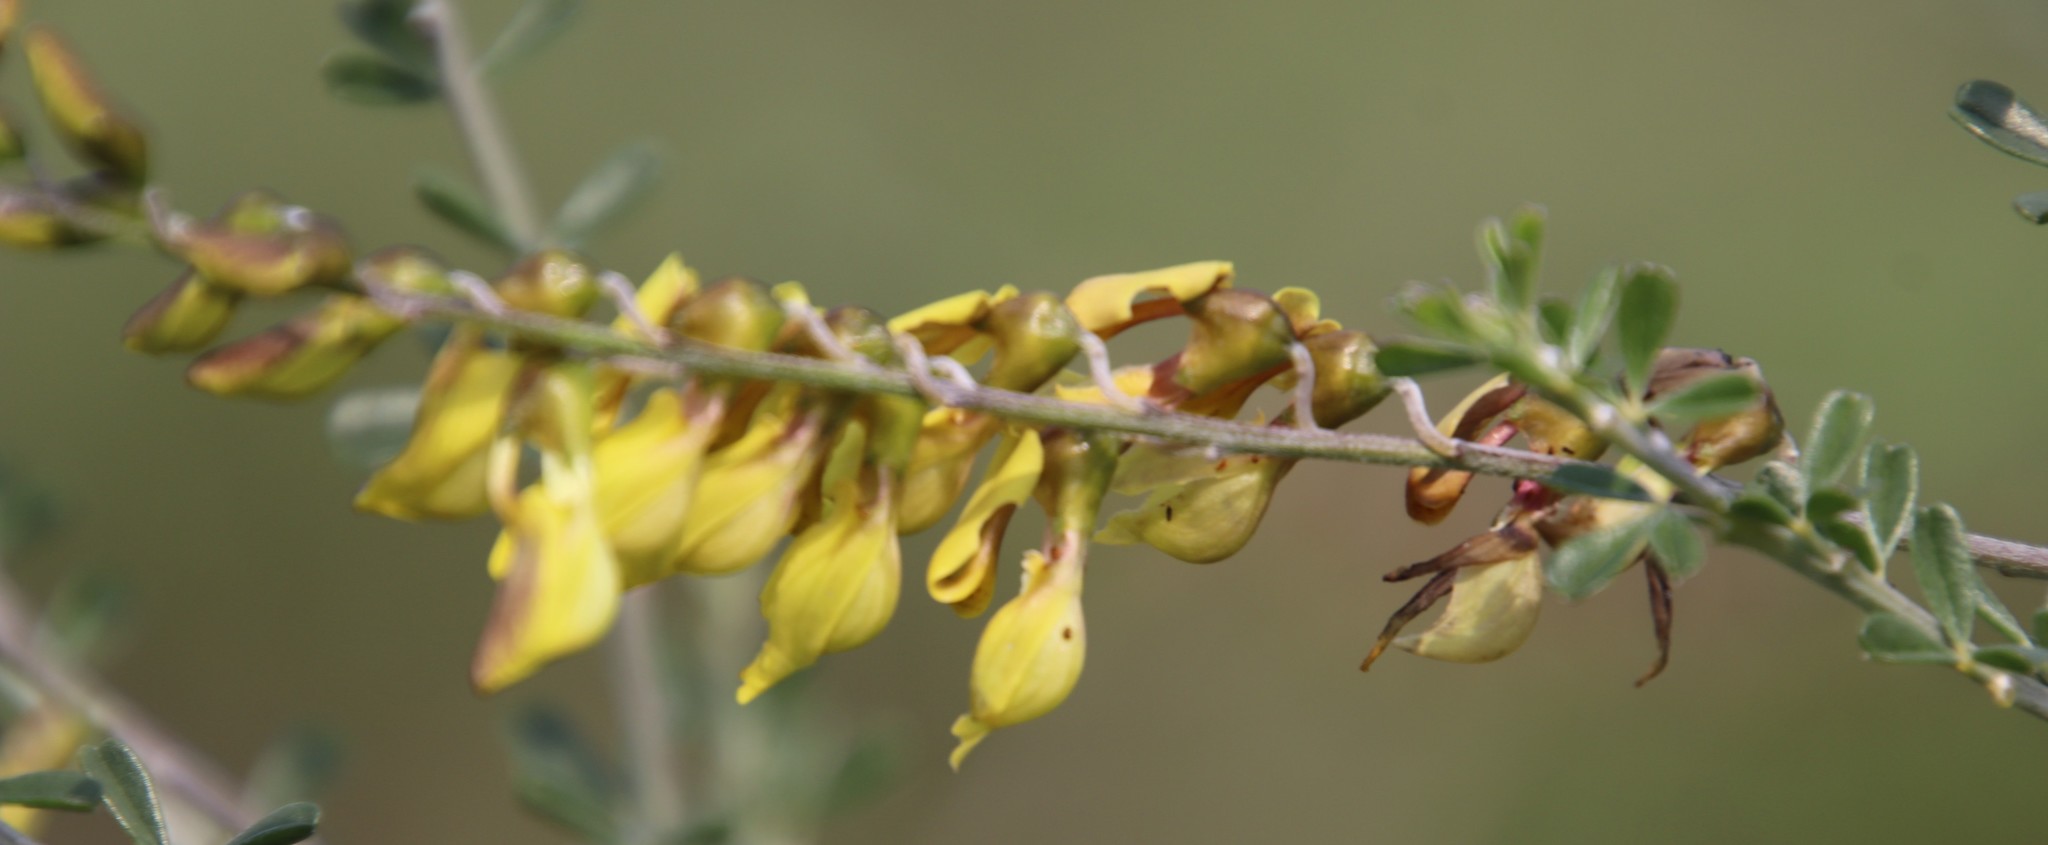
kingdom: Plantae
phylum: Tracheophyta
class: Magnoliopsida
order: Fabales
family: Fabaceae
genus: Wiborgia
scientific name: Wiborgia obcordata
